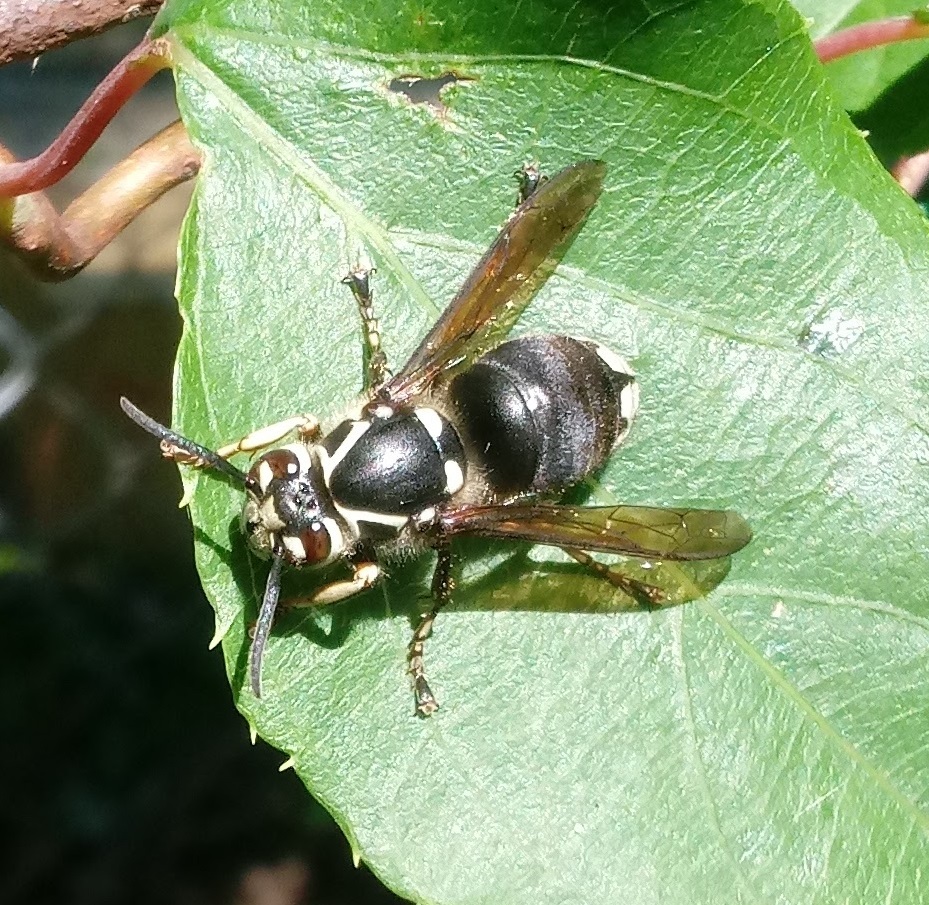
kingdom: Animalia
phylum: Arthropoda
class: Insecta
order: Hymenoptera
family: Vespidae
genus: Dolichovespula
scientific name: Dolichovespula maculata
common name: Bald-faced hornet
